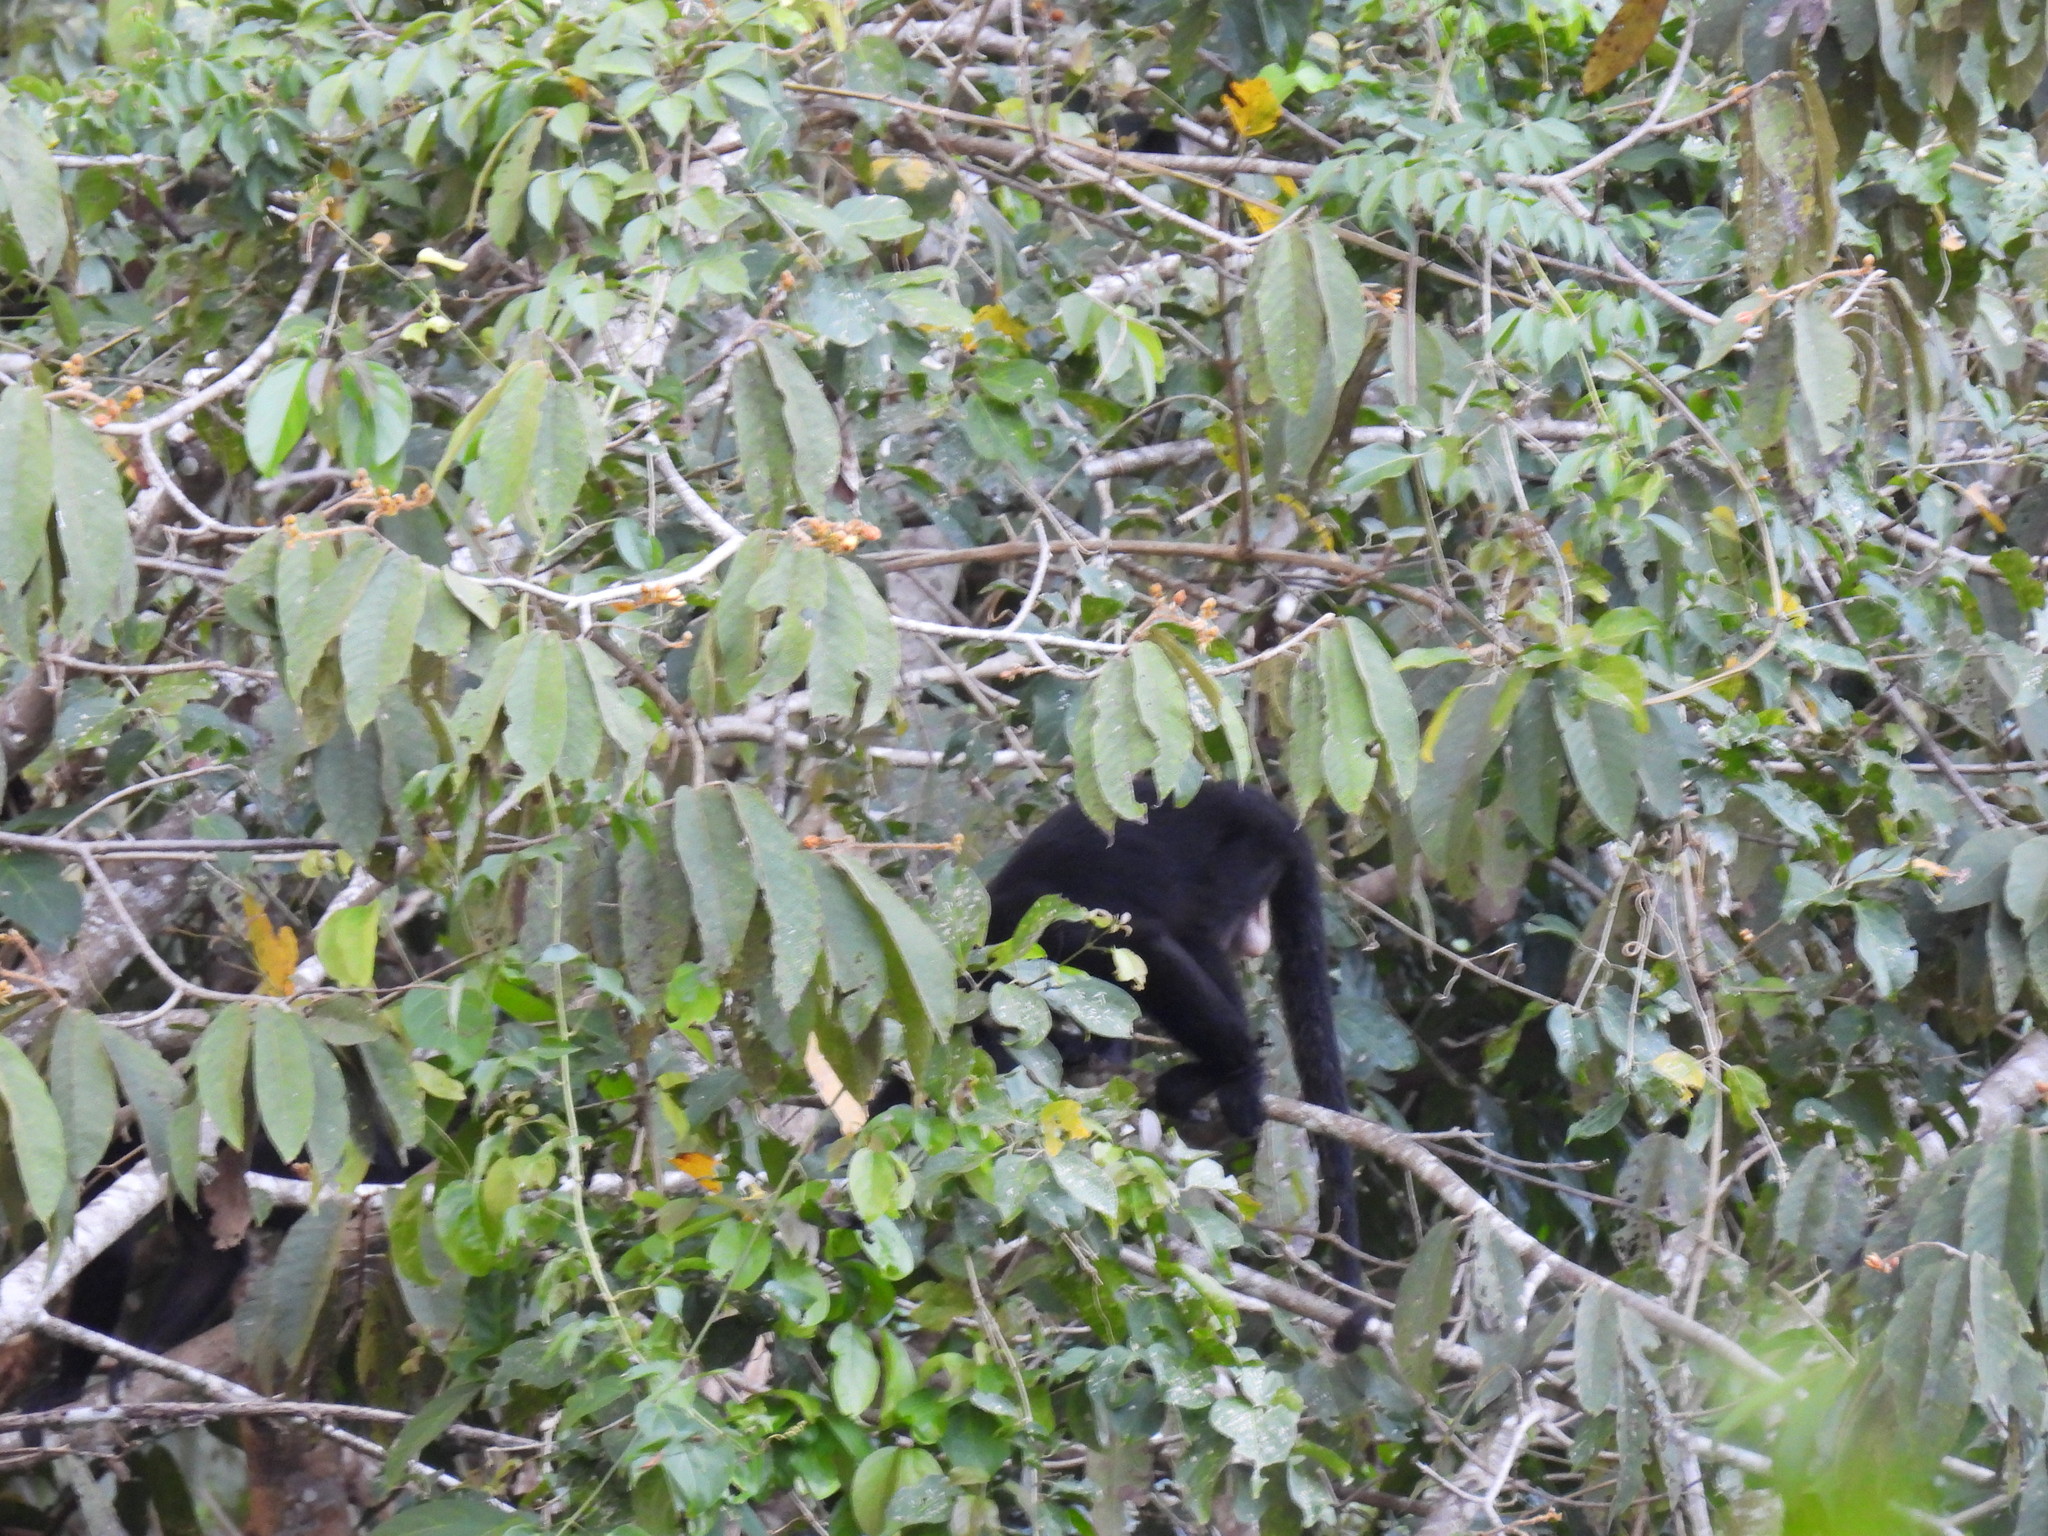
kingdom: Animalia
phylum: Chordata
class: Mammalia
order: Primates
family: Atelidae
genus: Alouatta
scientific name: Alouatta palliata
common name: Mantled howler
